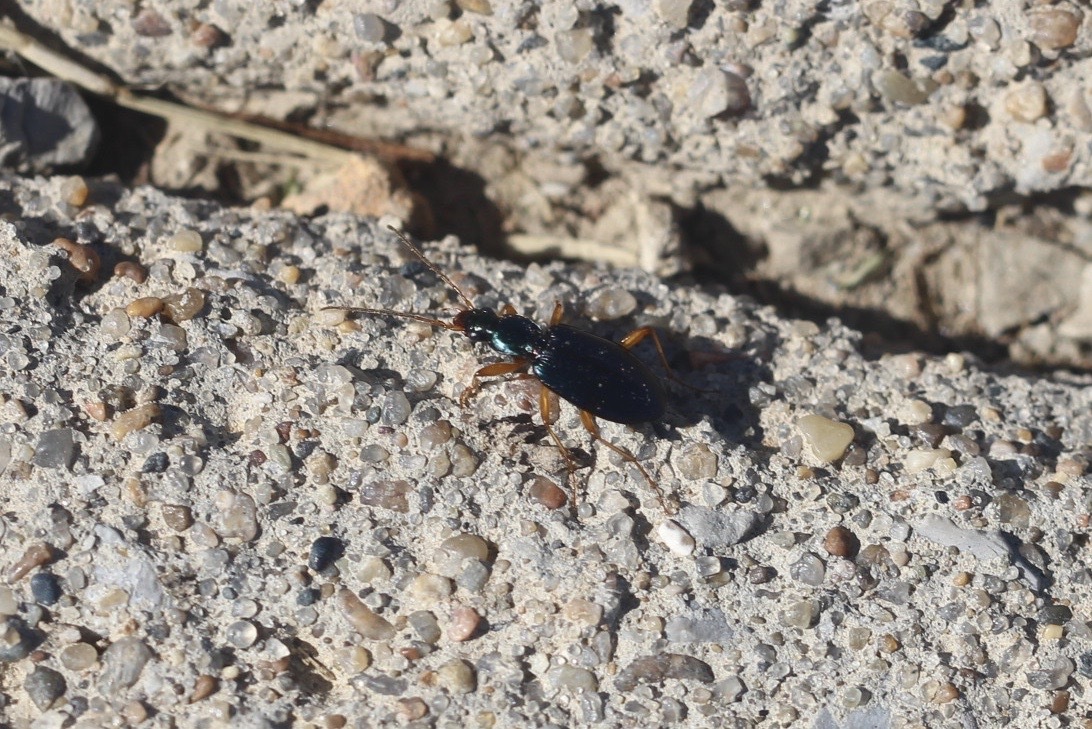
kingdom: Animalia
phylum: Arthropoda
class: Insecta
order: Coleoptera
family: Carabidae
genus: Agonum
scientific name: Agonum extensicolle
